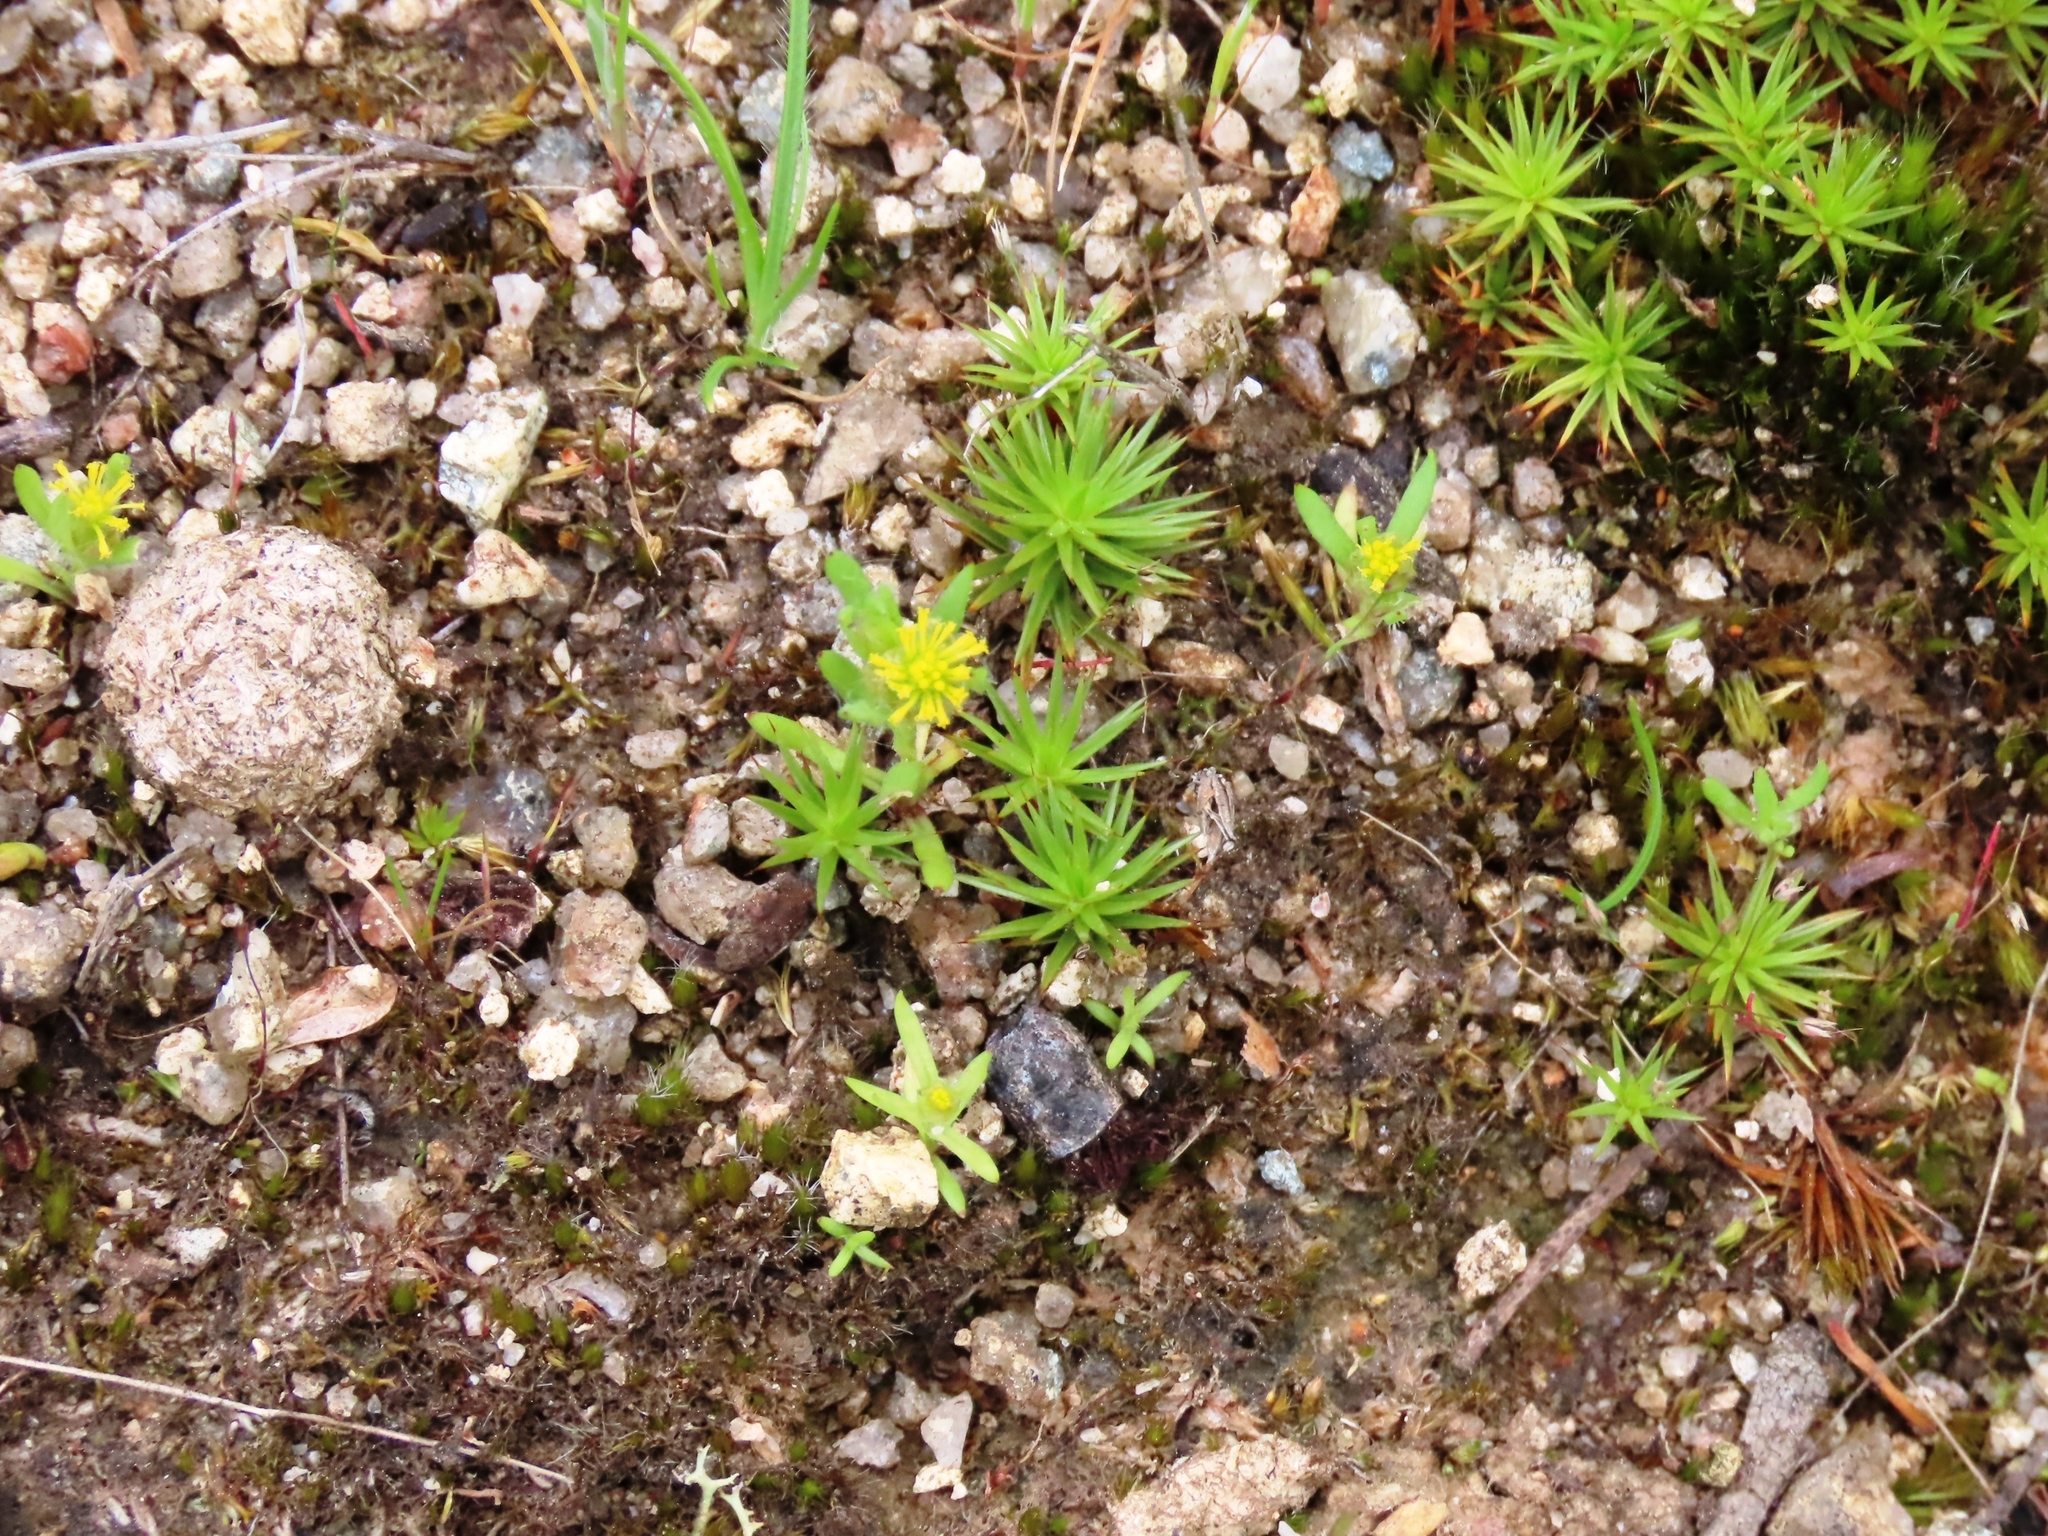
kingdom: Plantae
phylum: Tracheophyta
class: Magnoliopsida
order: Asterales
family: Asteraceae
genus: Triptilodiscus
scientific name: Triptilodiscus pygmaeus
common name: Common sunray
